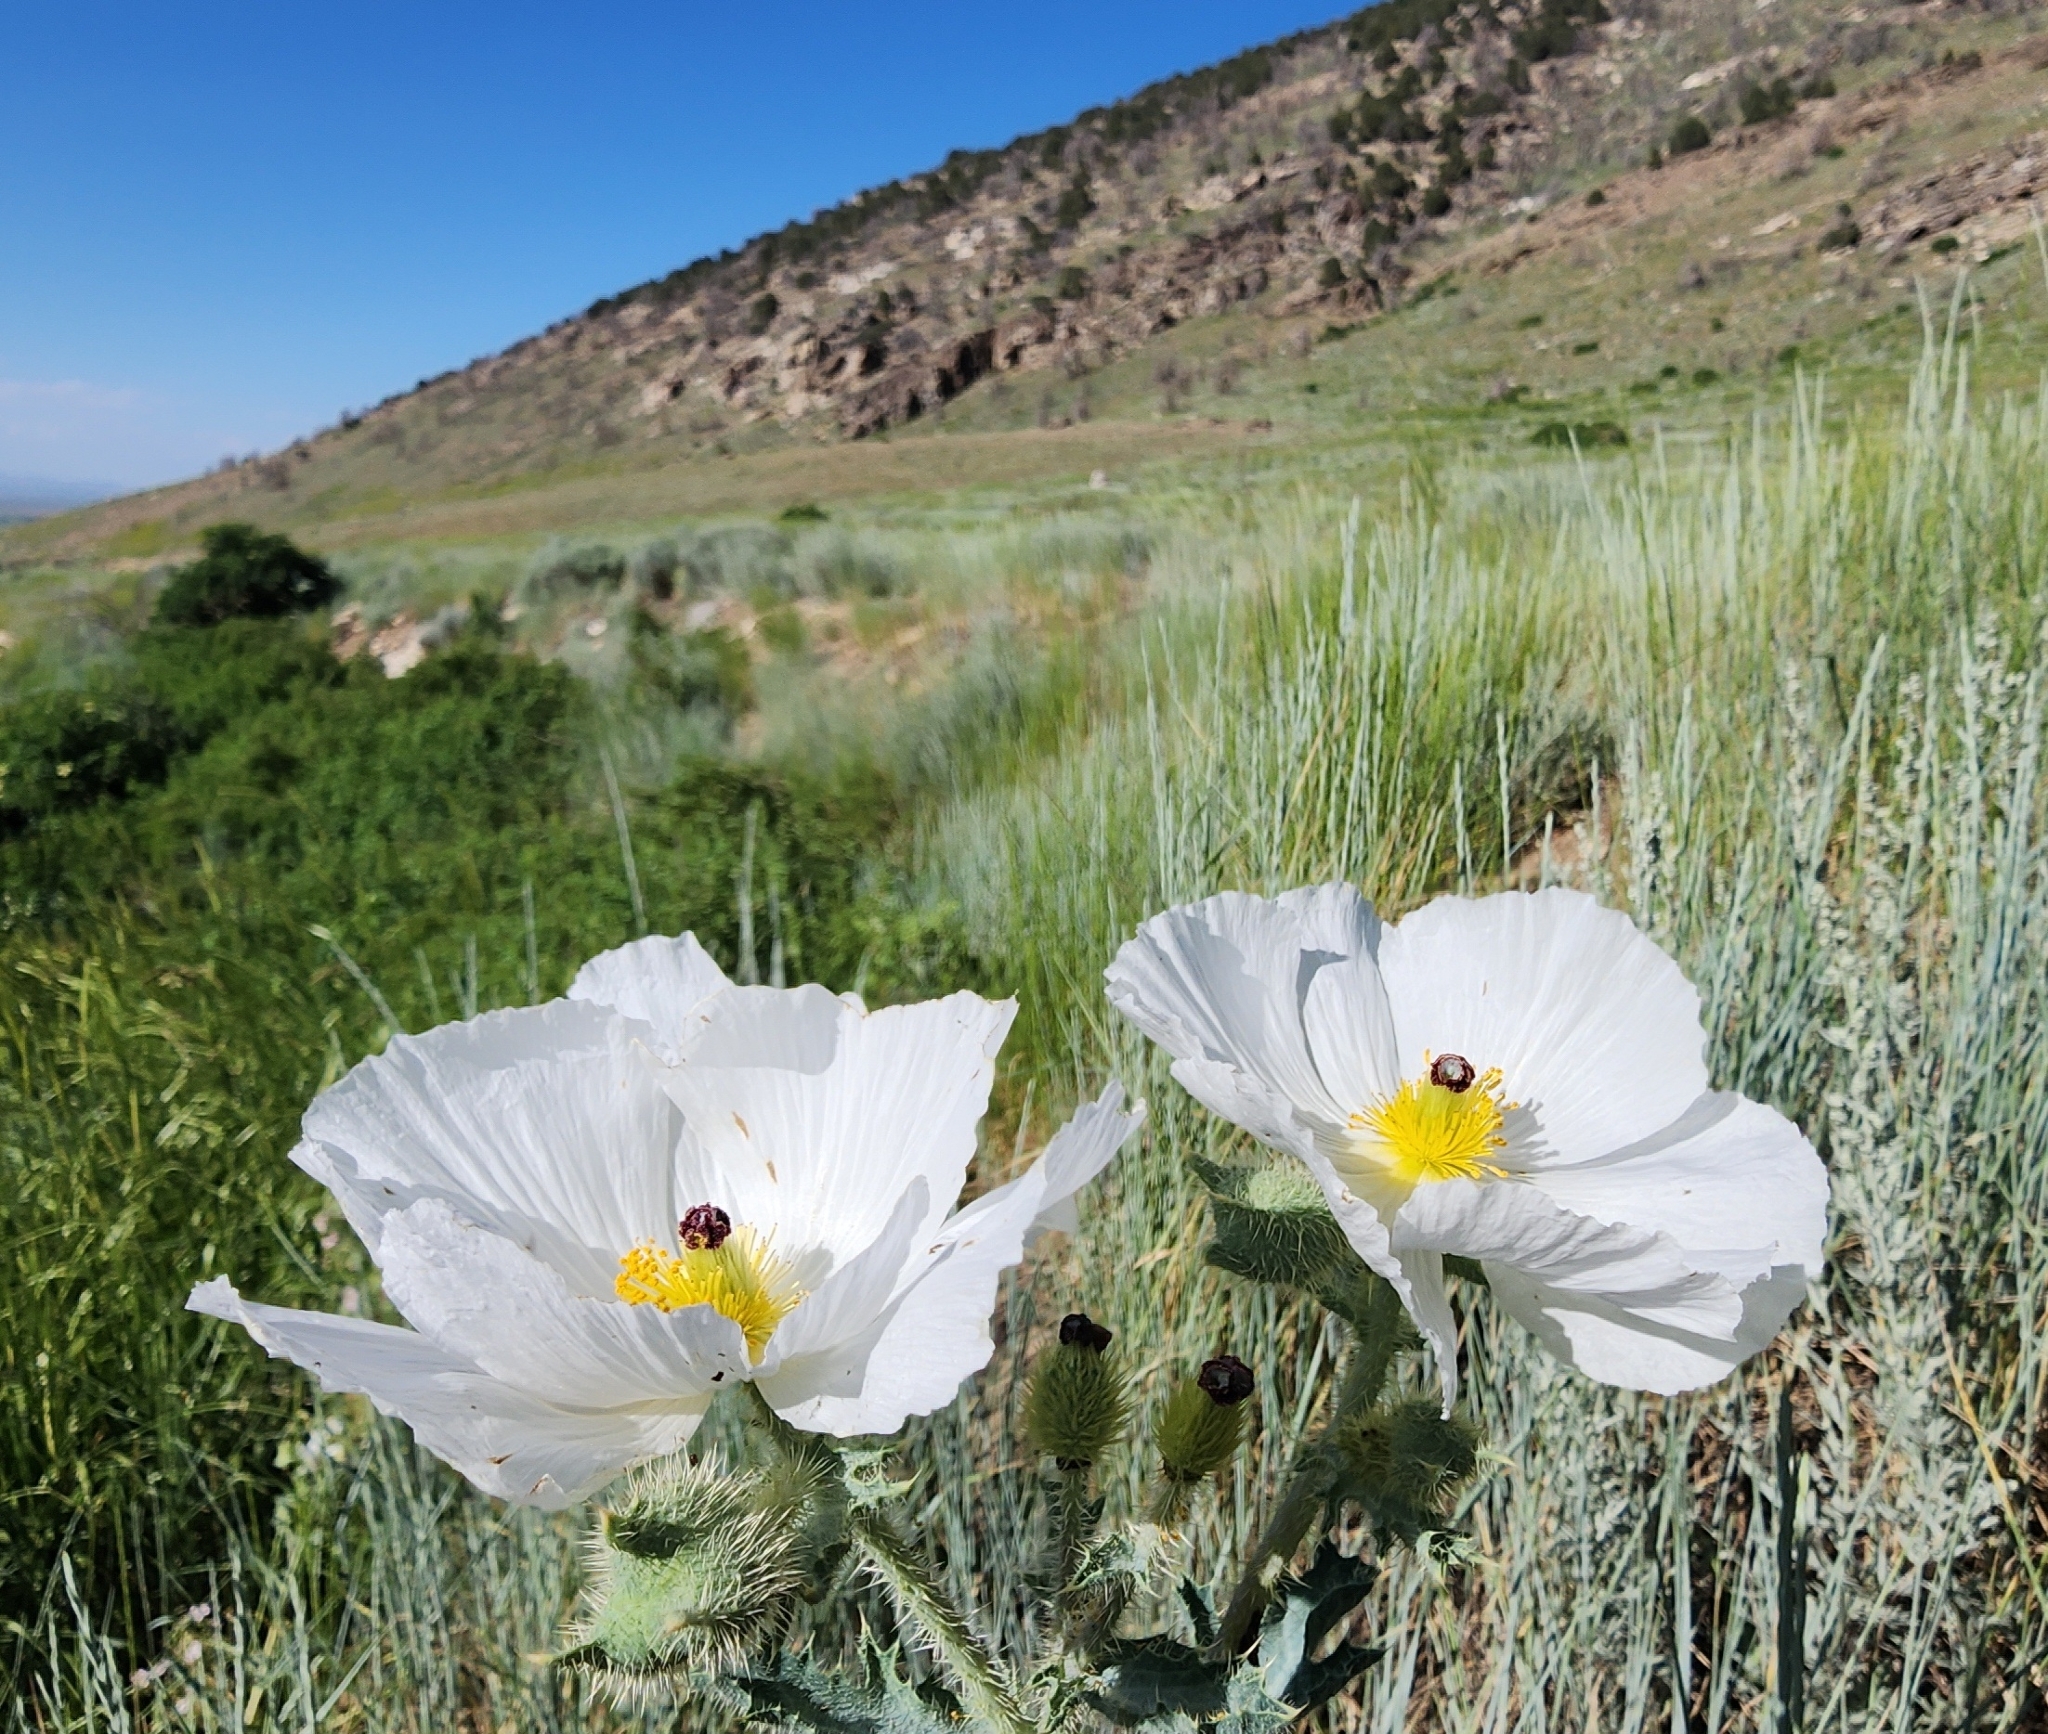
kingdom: Plantae
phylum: Tracheophyta
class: Magnoliopsida
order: Ranunculales
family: Papaveraceae
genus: Argemone
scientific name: Argemone munita
